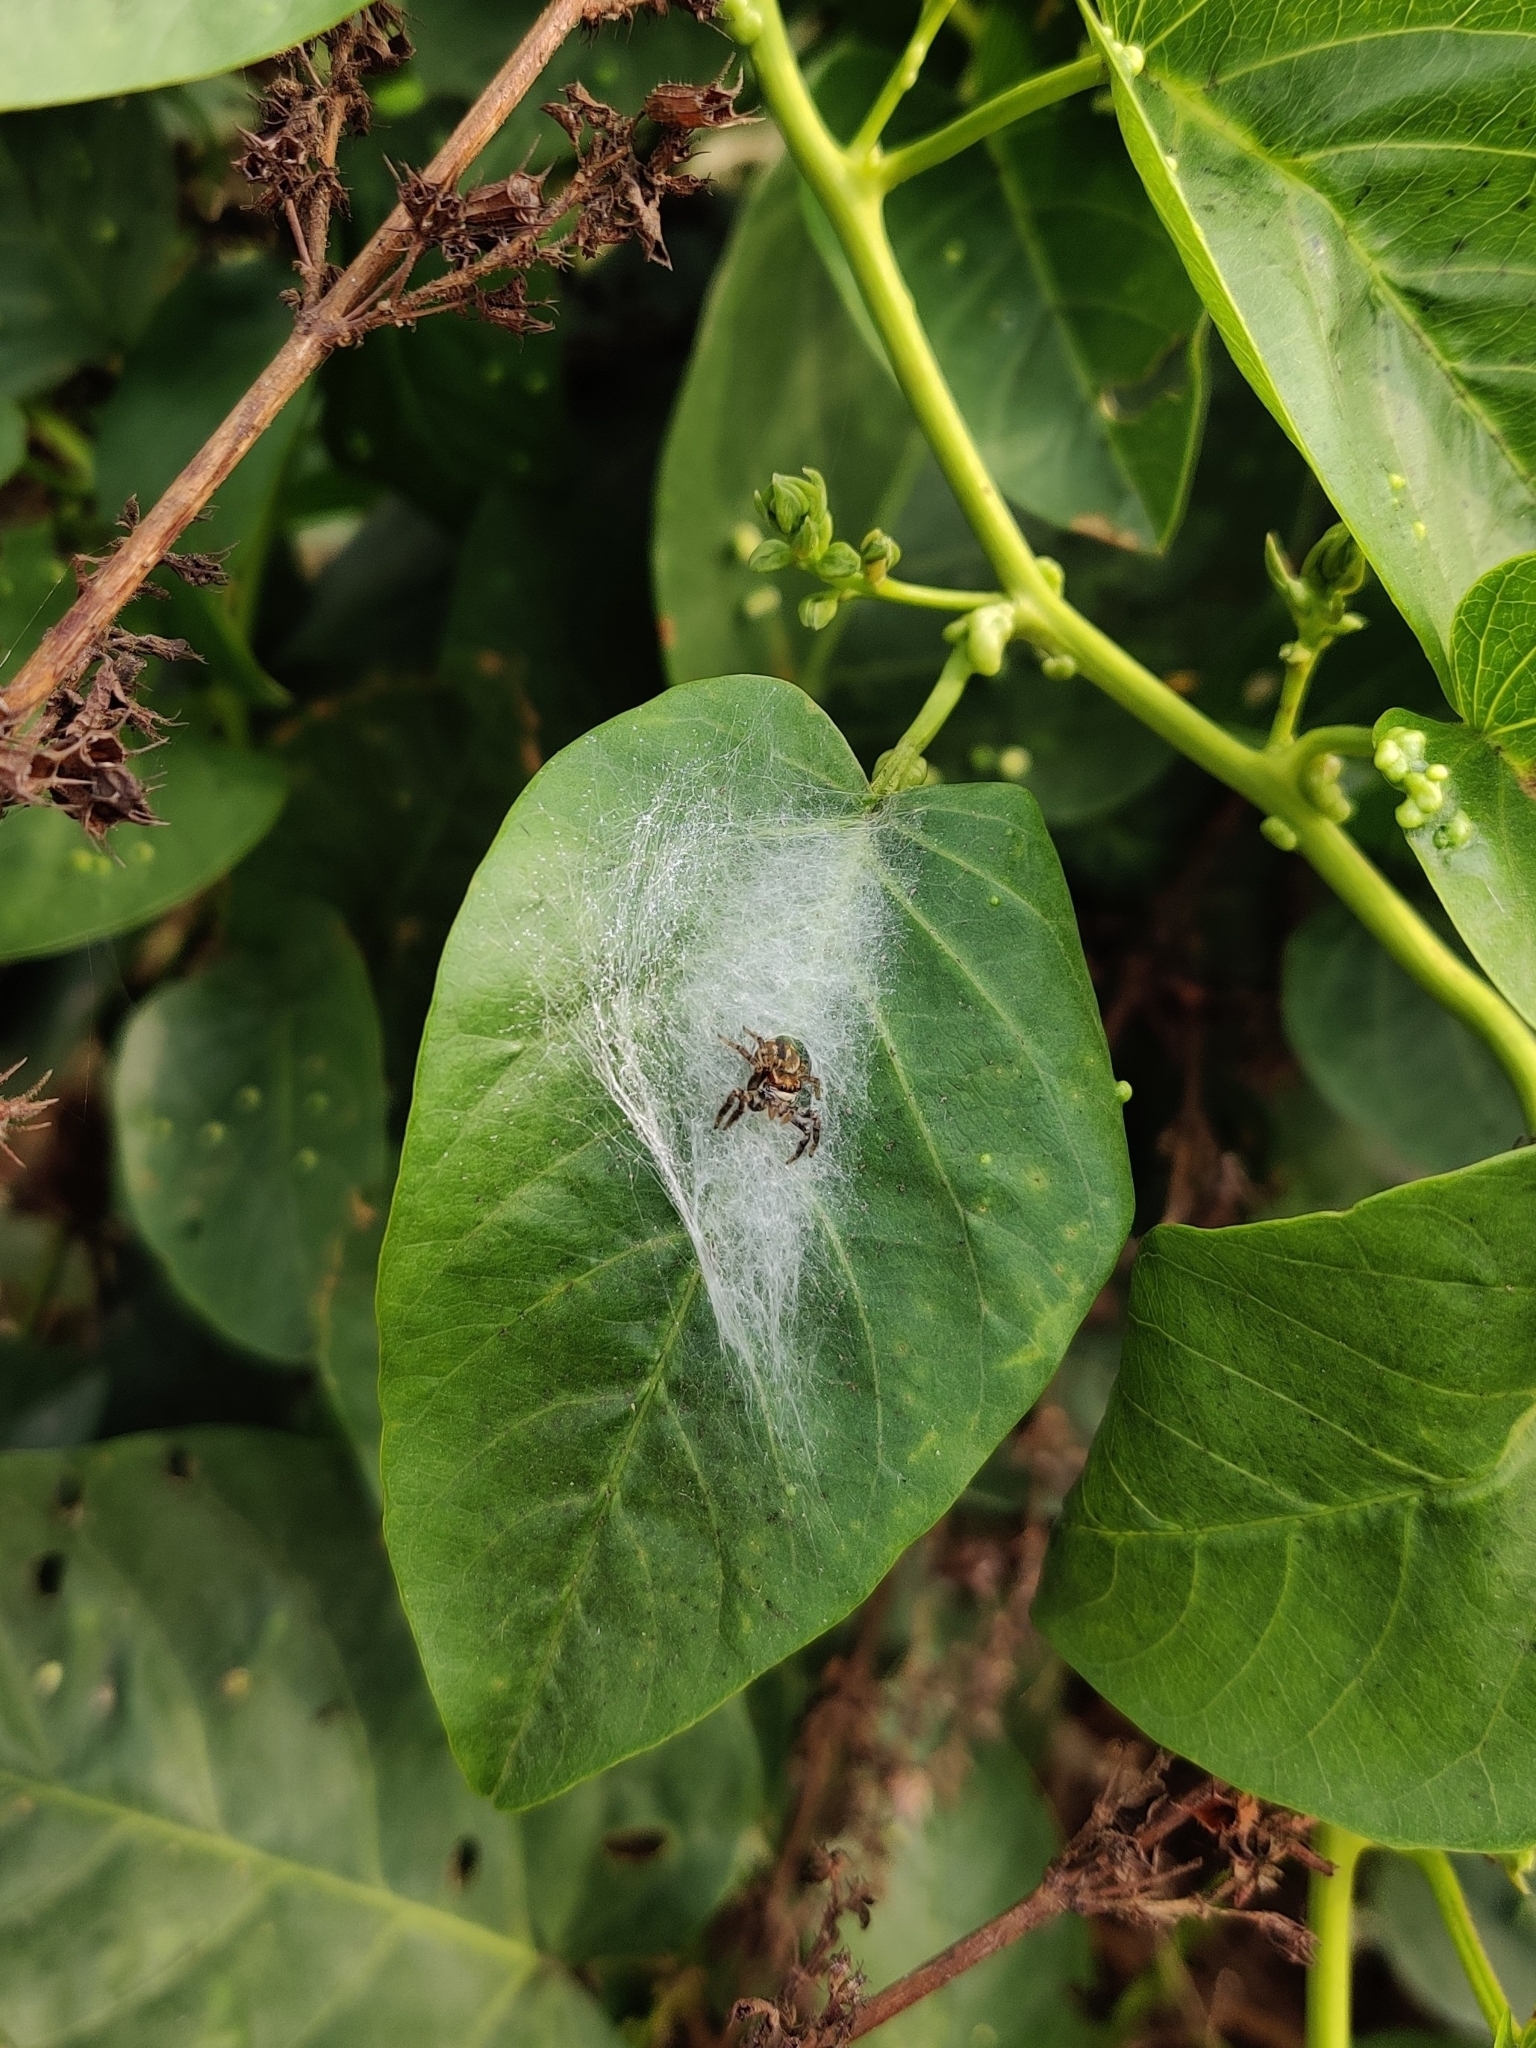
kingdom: Animalia
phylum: Arthropoda
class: Arachnida
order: Araneae
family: Salticidae
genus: Carrhotus
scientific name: Carrhotus viduus
